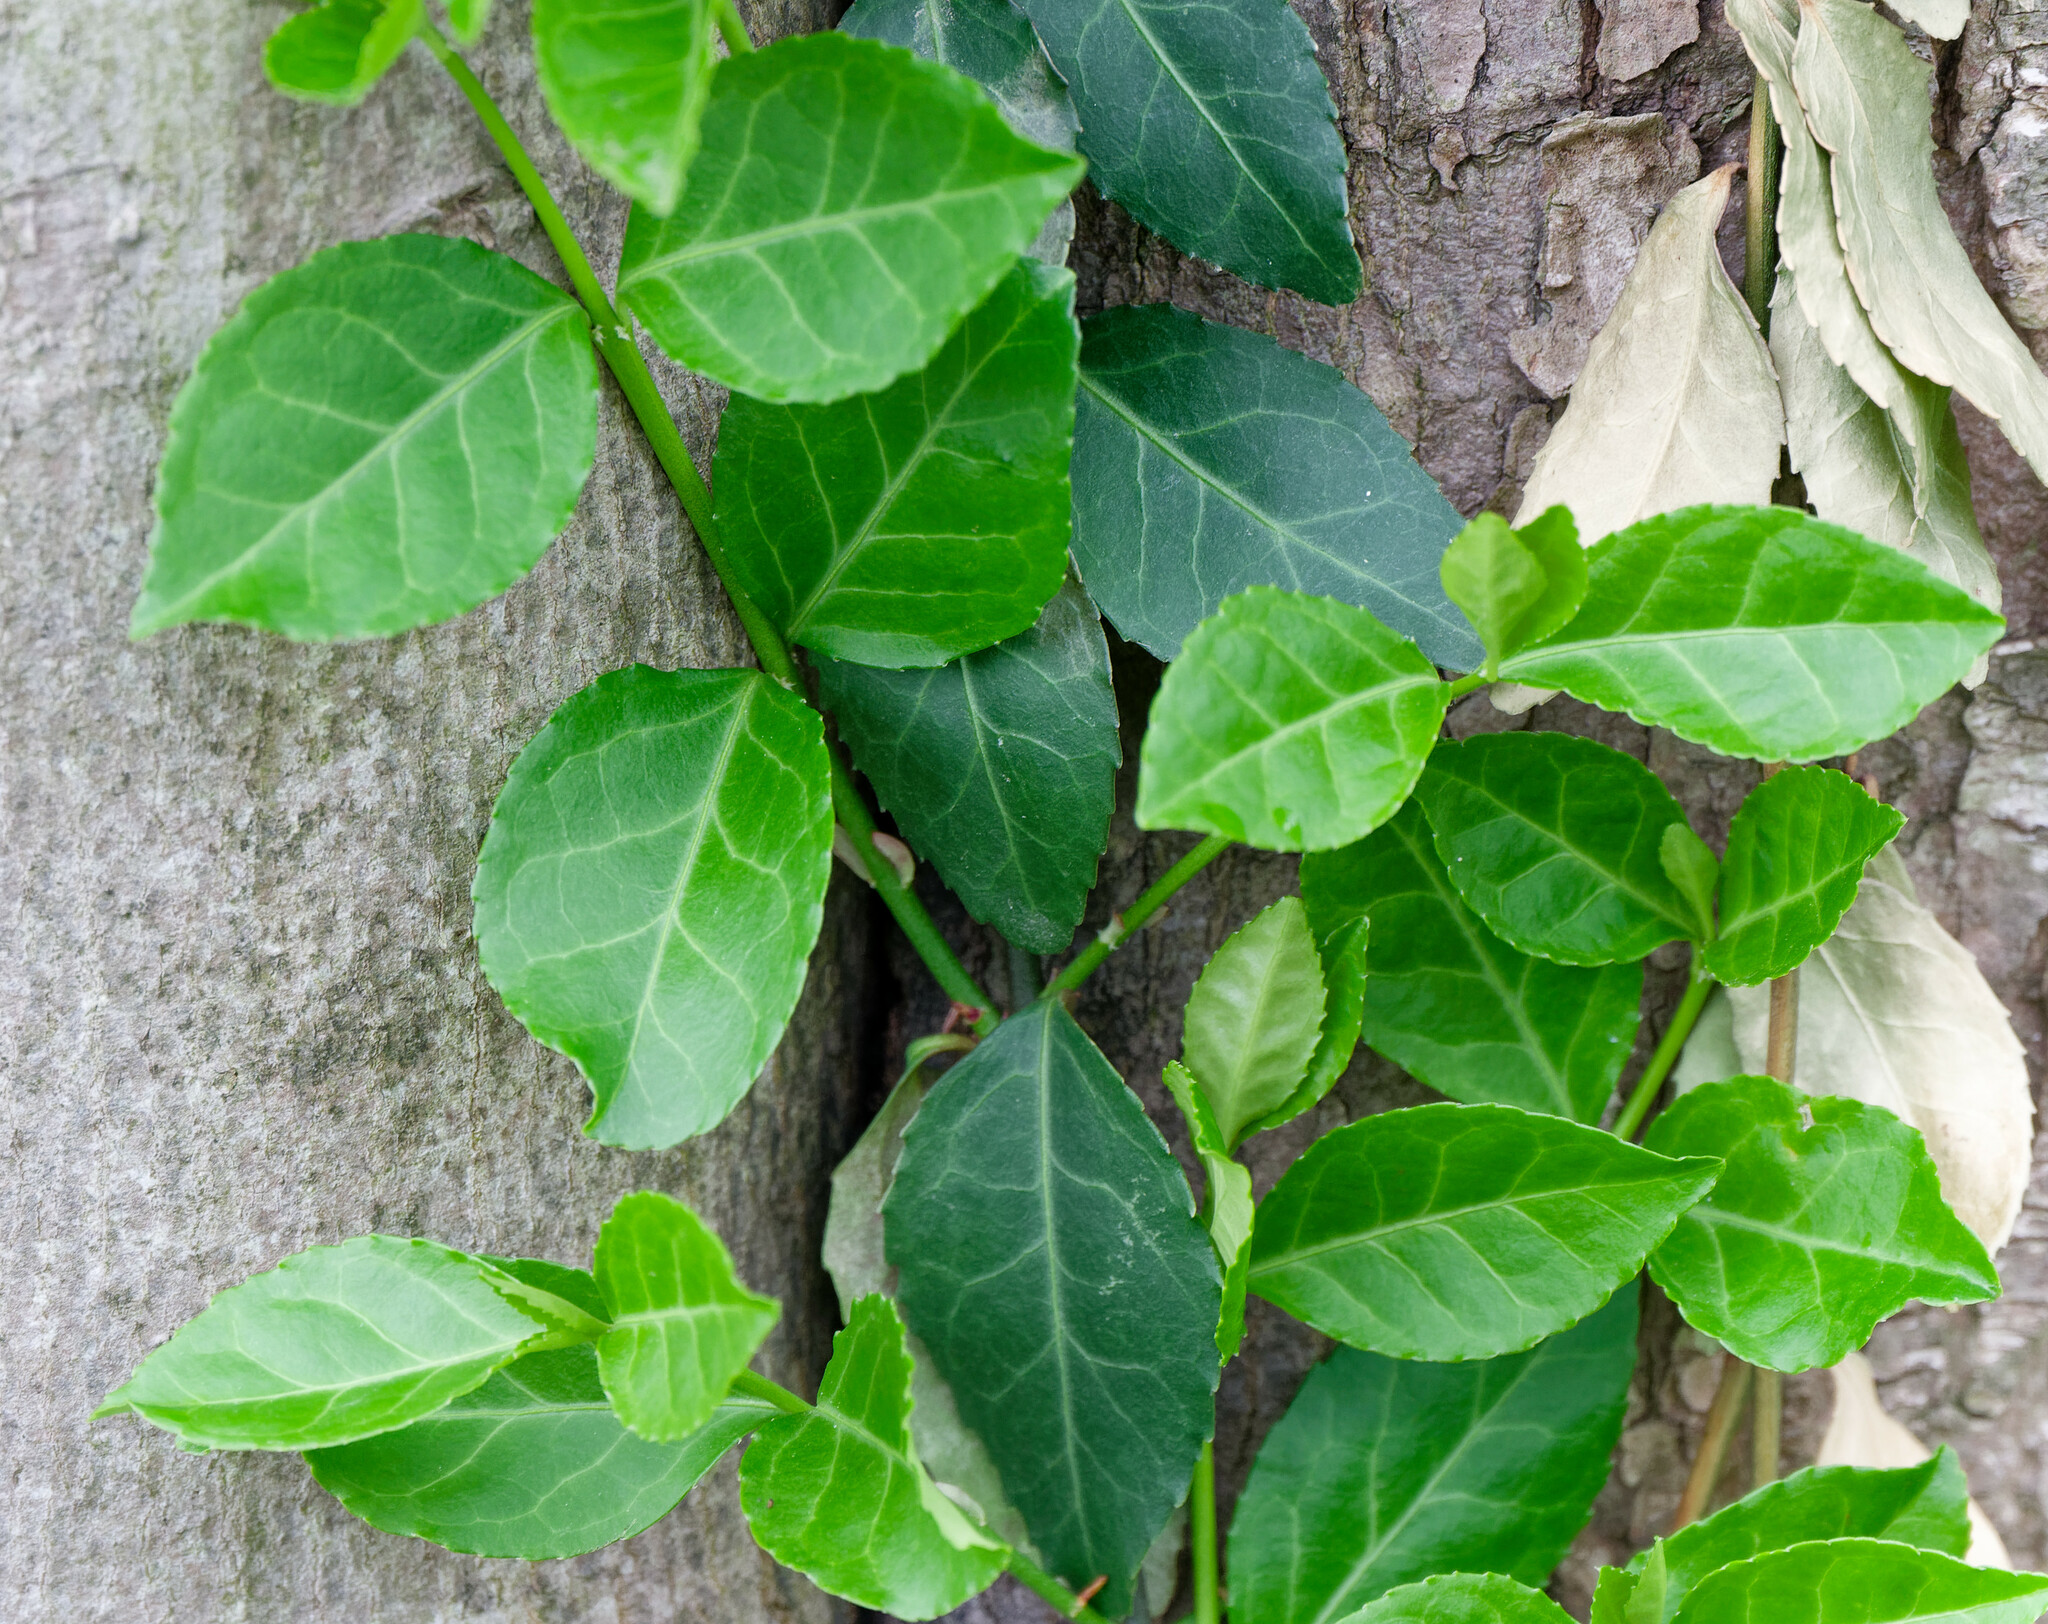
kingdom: Plantae
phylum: Tracheophyta
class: Magnoliopsida
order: Celastrales
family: Celastraceae
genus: Euonymus
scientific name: Euonymus fortunei
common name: Climbing euonymus
